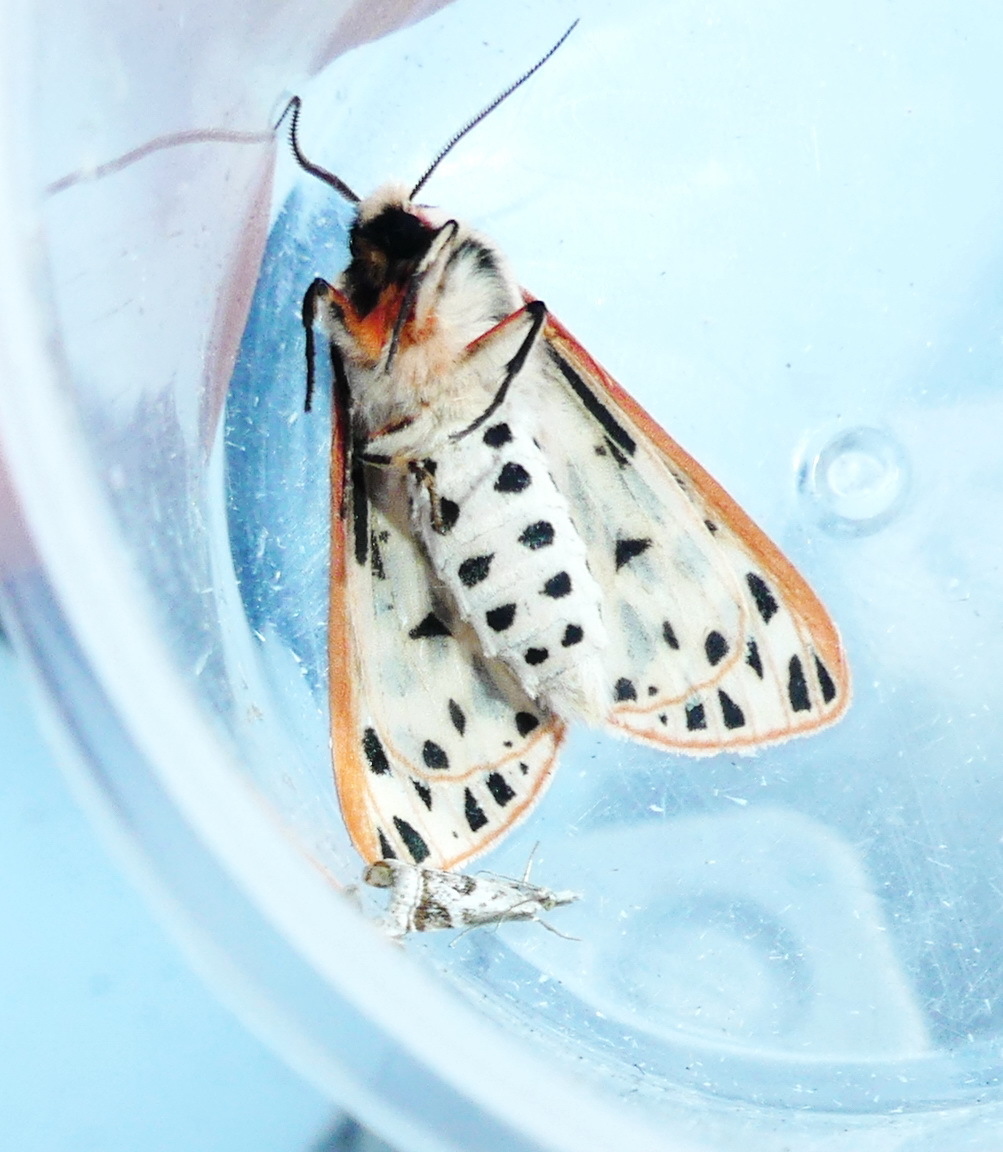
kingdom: Animalia
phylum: Arthropoda
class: Insecta
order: Lepidoptera
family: Erebidae
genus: Apantesis
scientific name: Apantesis arge
